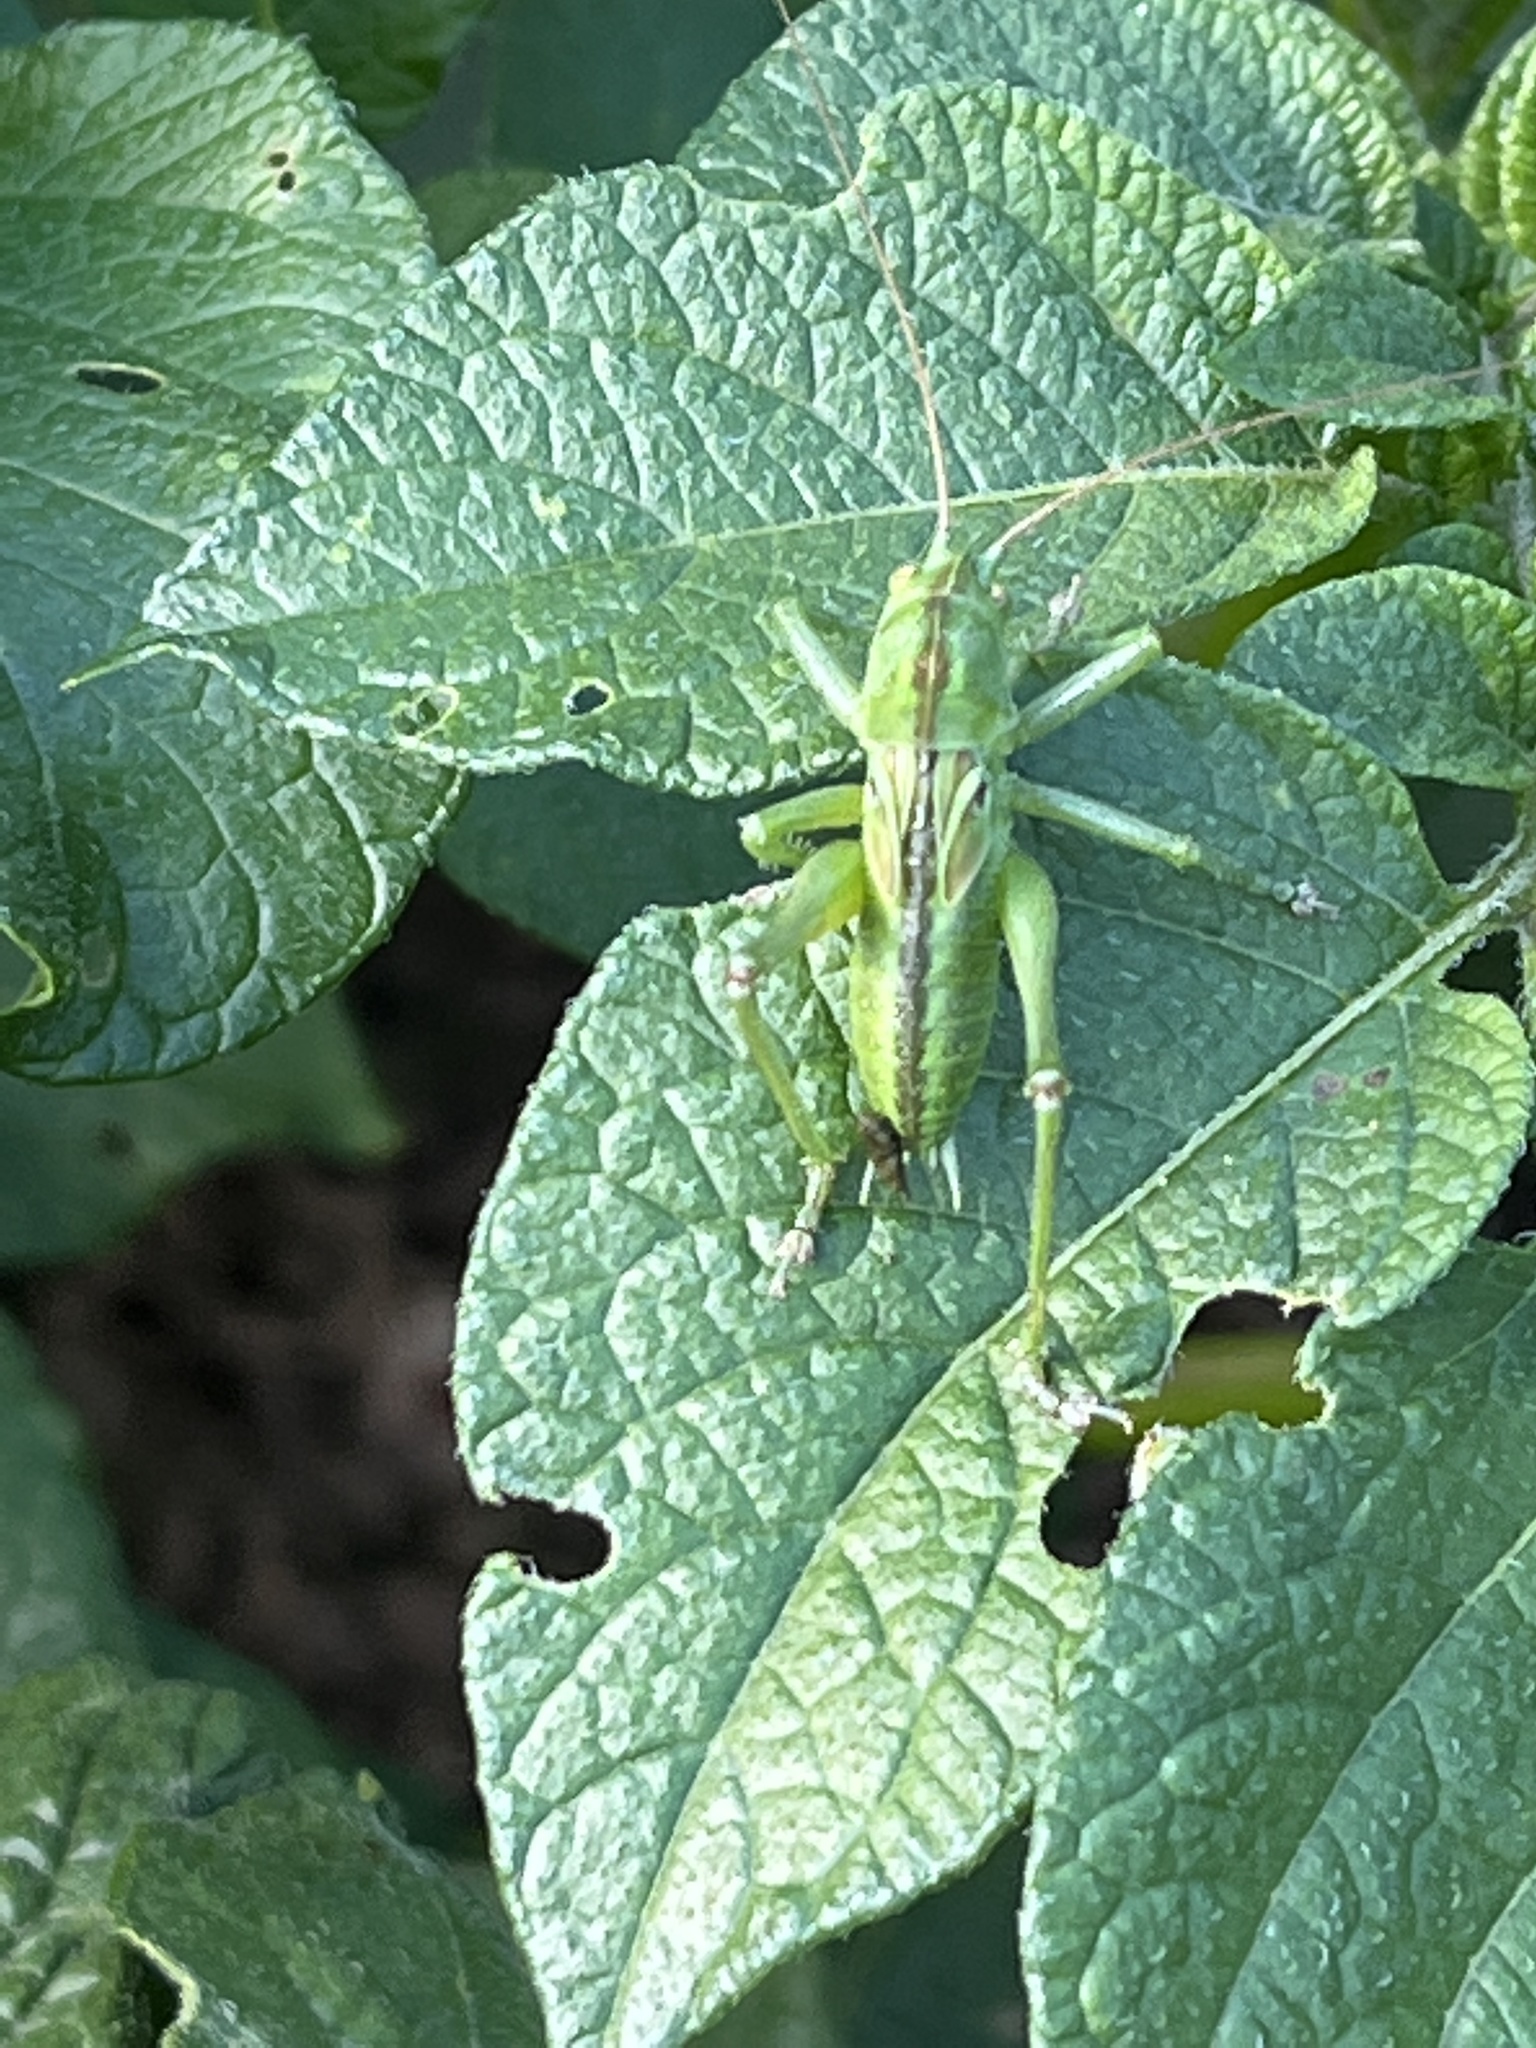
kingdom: Animalia
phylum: Arthropoda
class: Insecta
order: Orthoptera
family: Tettigoniidae
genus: Tettigonia
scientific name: Tettigonia viridissima
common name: Great green bush-cricket
